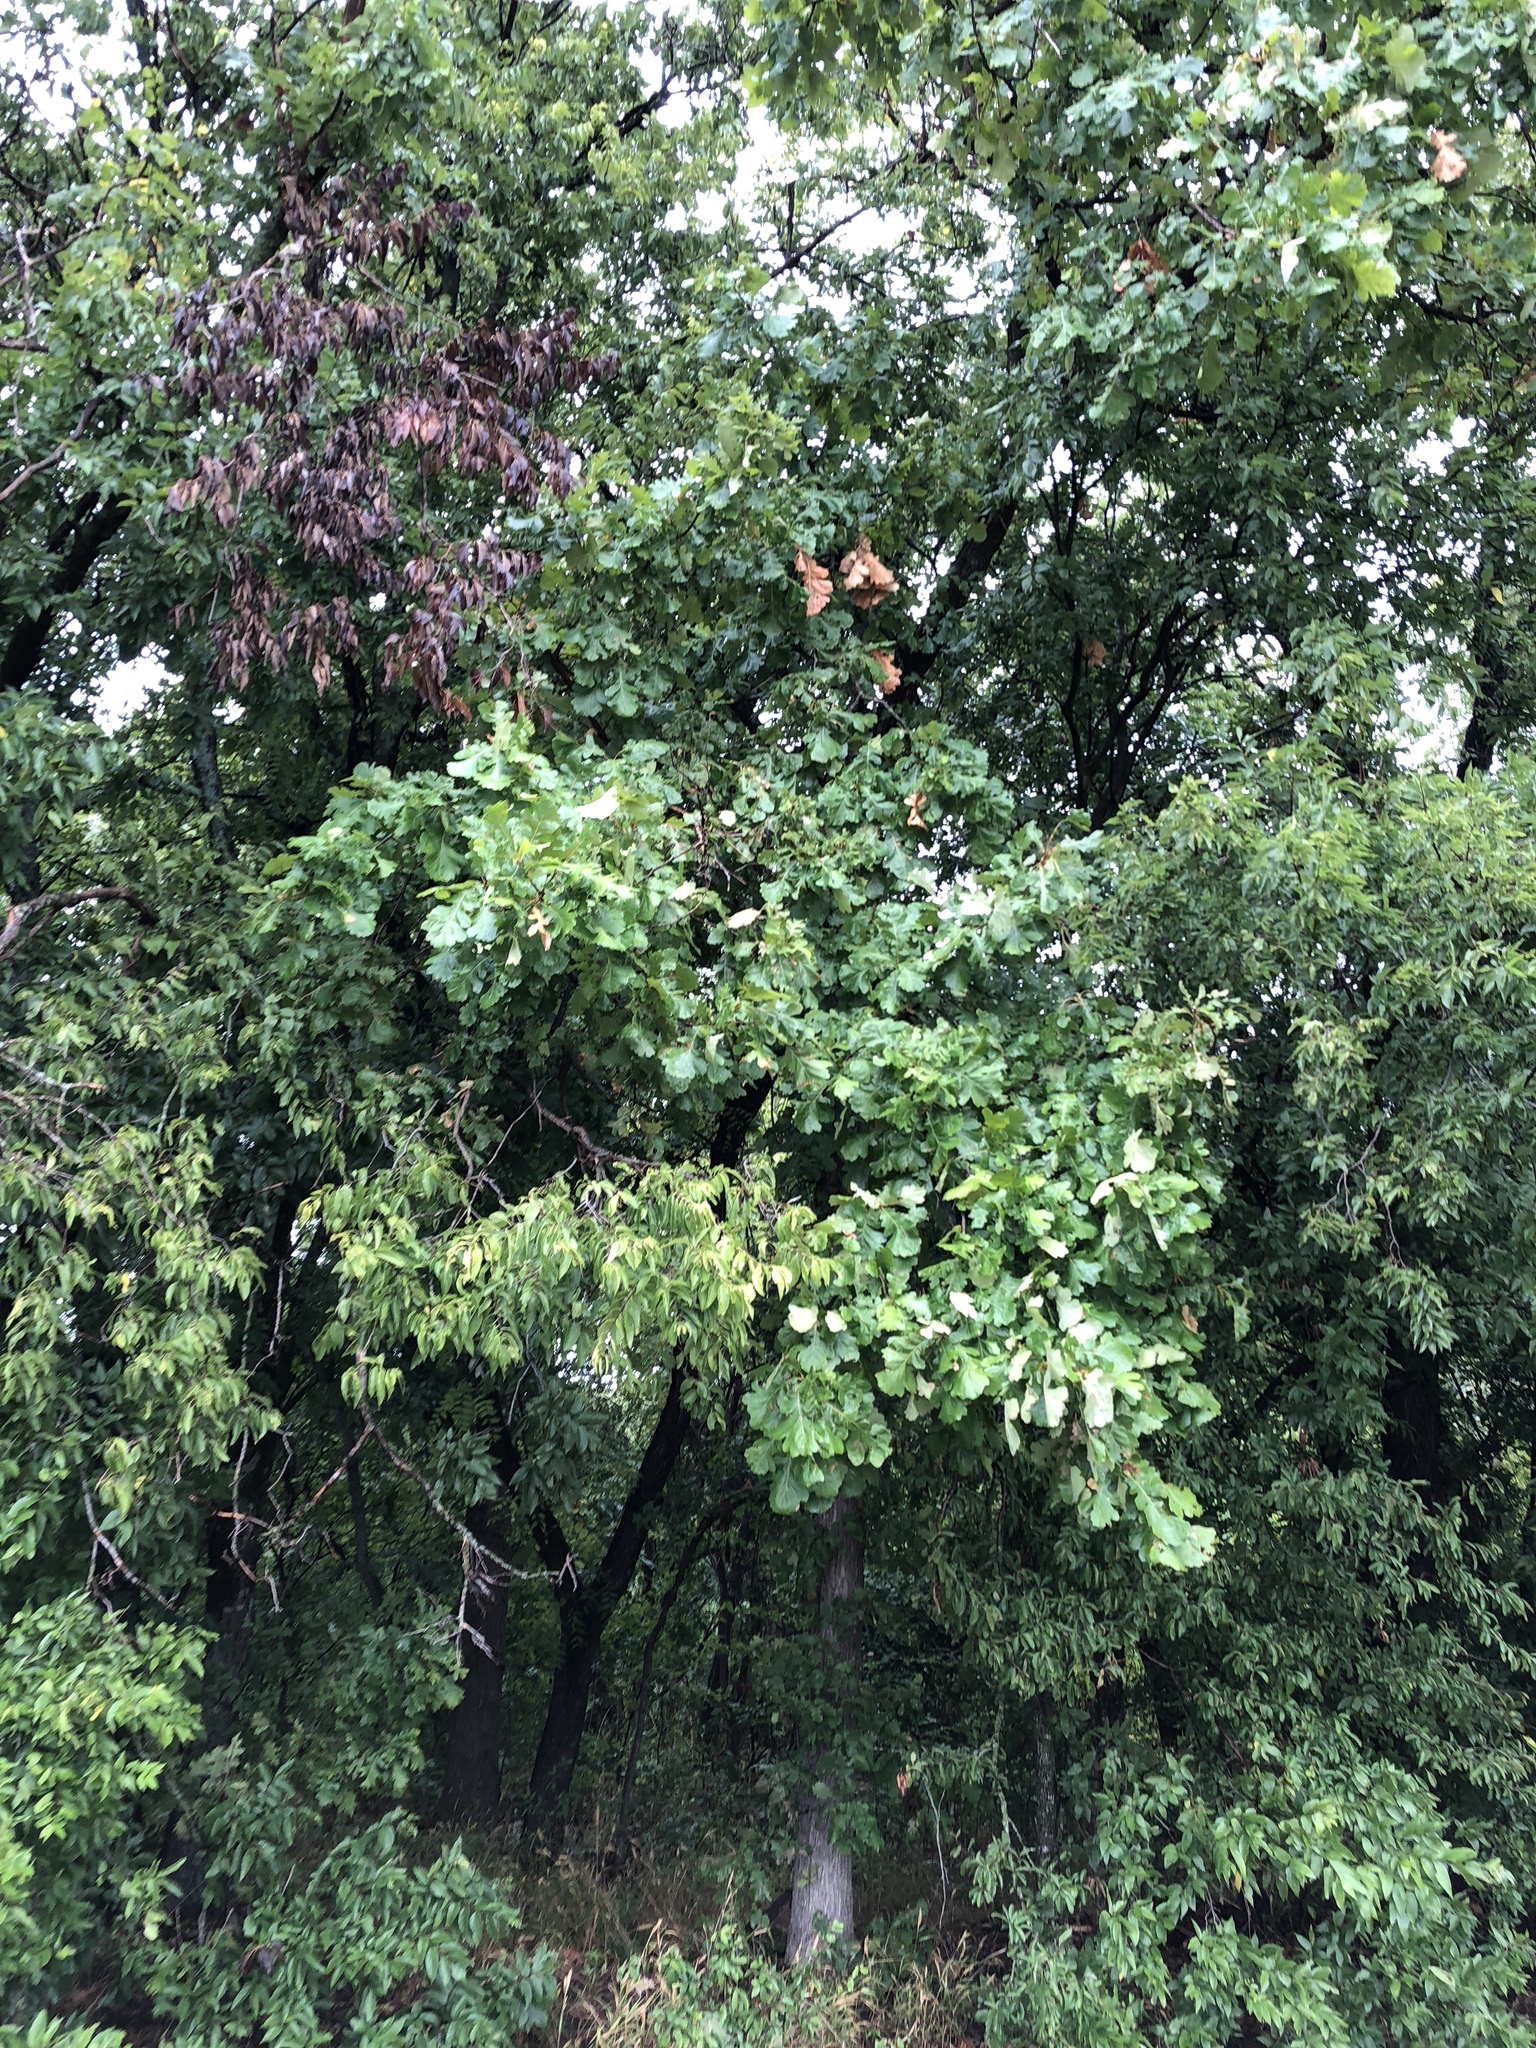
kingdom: Plantae
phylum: Tracheophyta
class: Magnoliopsida
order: Fagales
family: Fagaceae
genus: Quercus
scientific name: Quercus macrocarpa
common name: Bur oak
